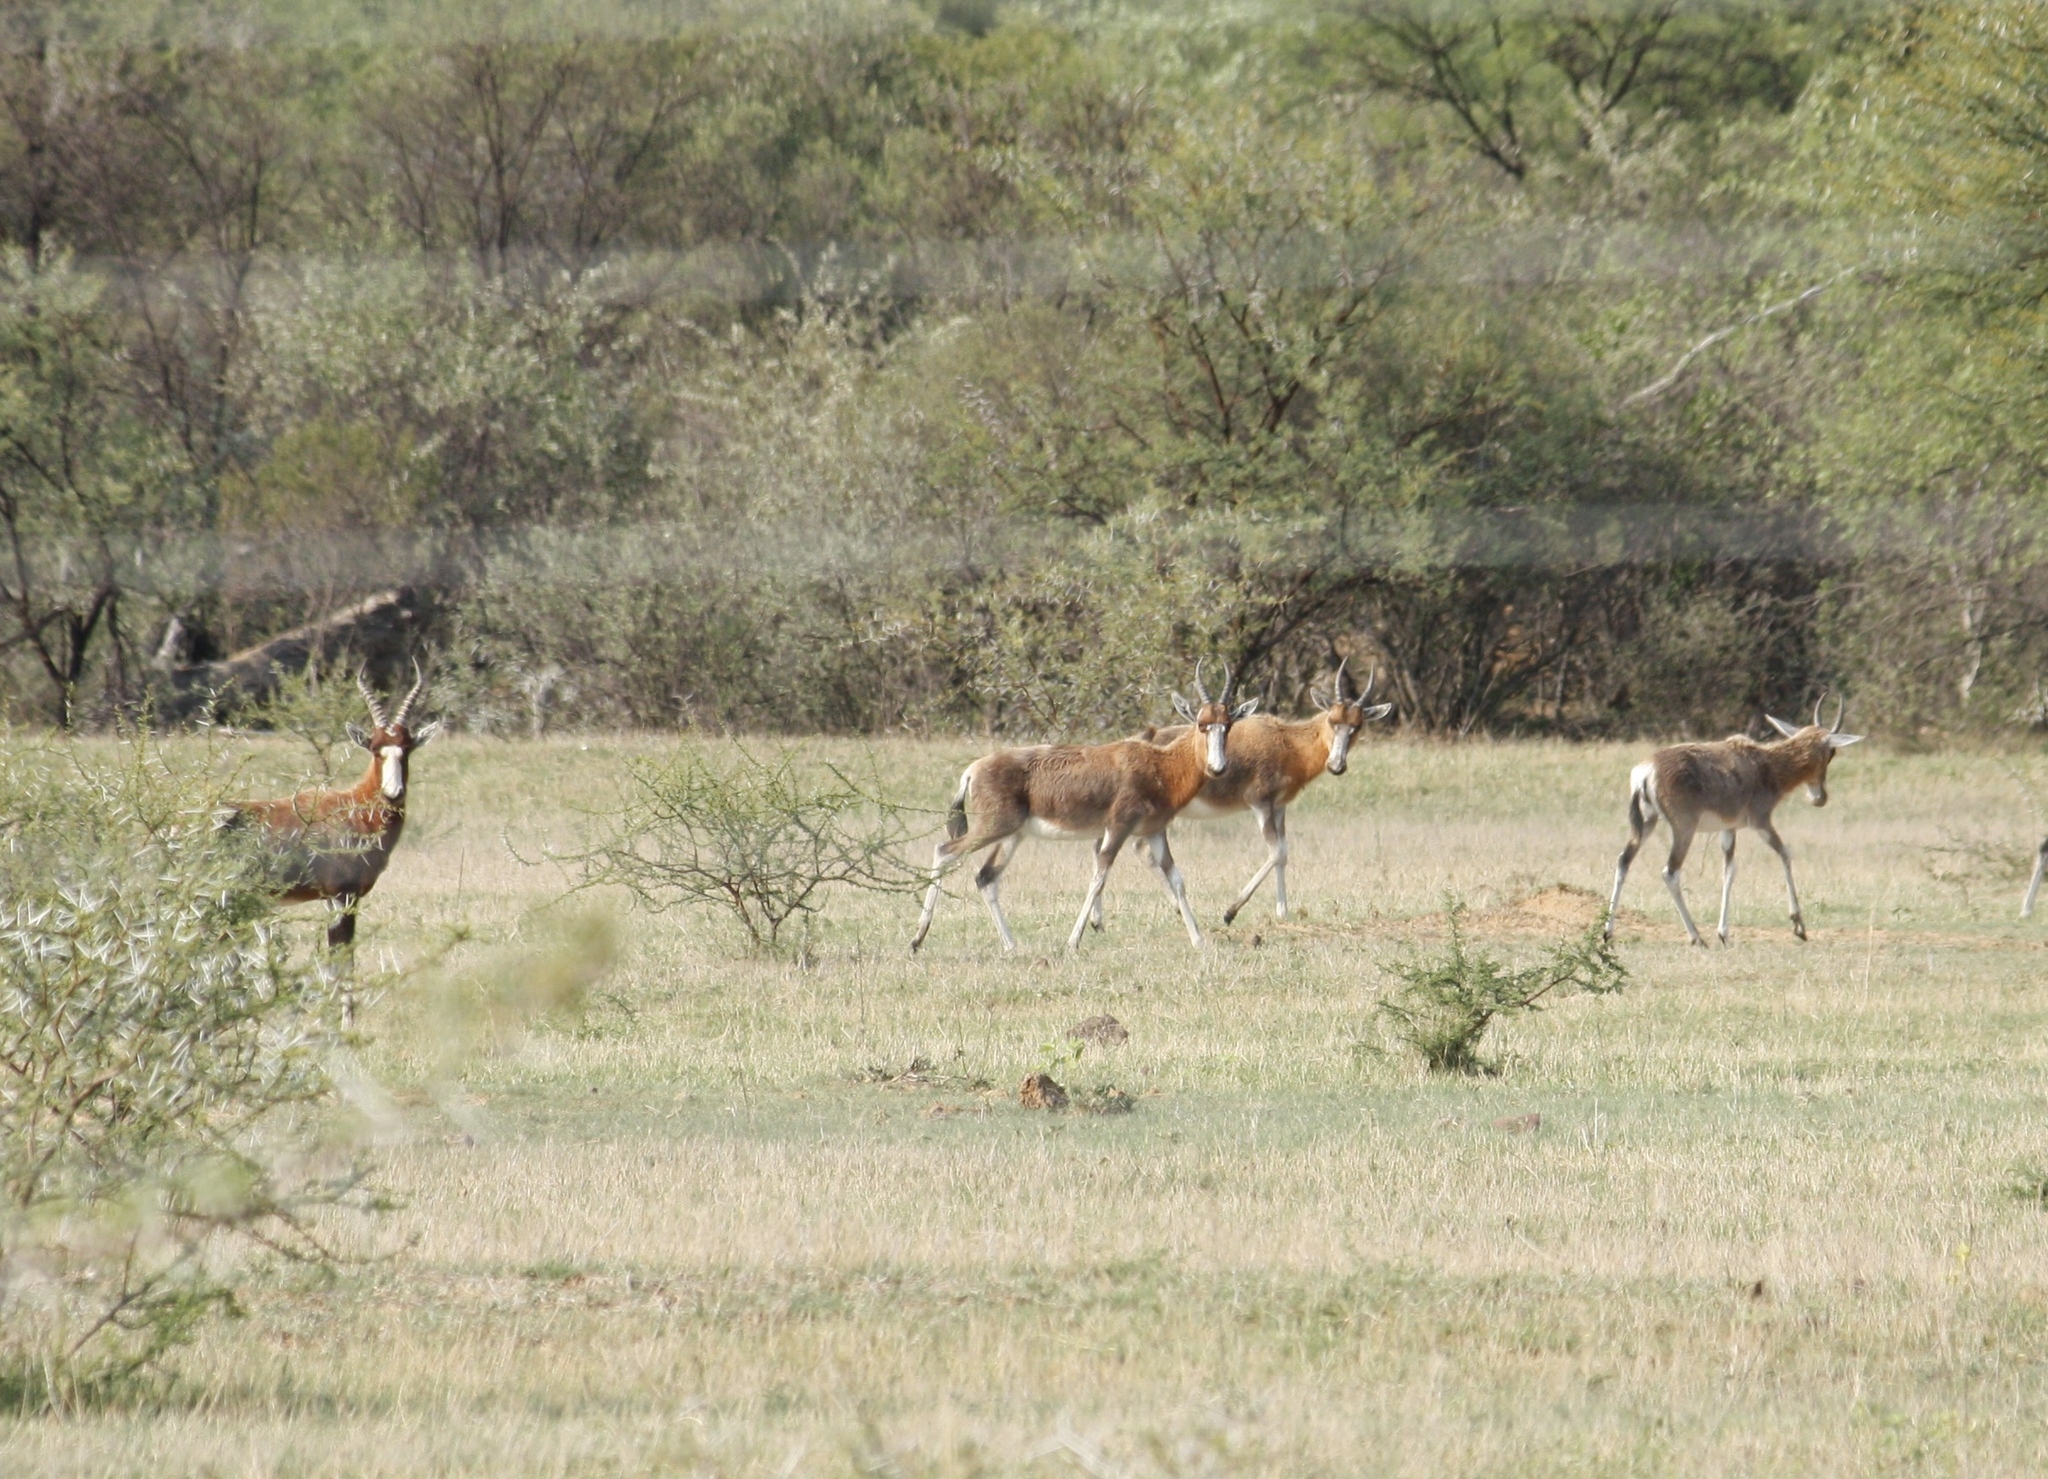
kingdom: Animalia
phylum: Chordata
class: Mammalia
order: Artiodactyla
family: Bovidae
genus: Damaliscus
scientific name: Damaliscus pygargus
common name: Bontebok
